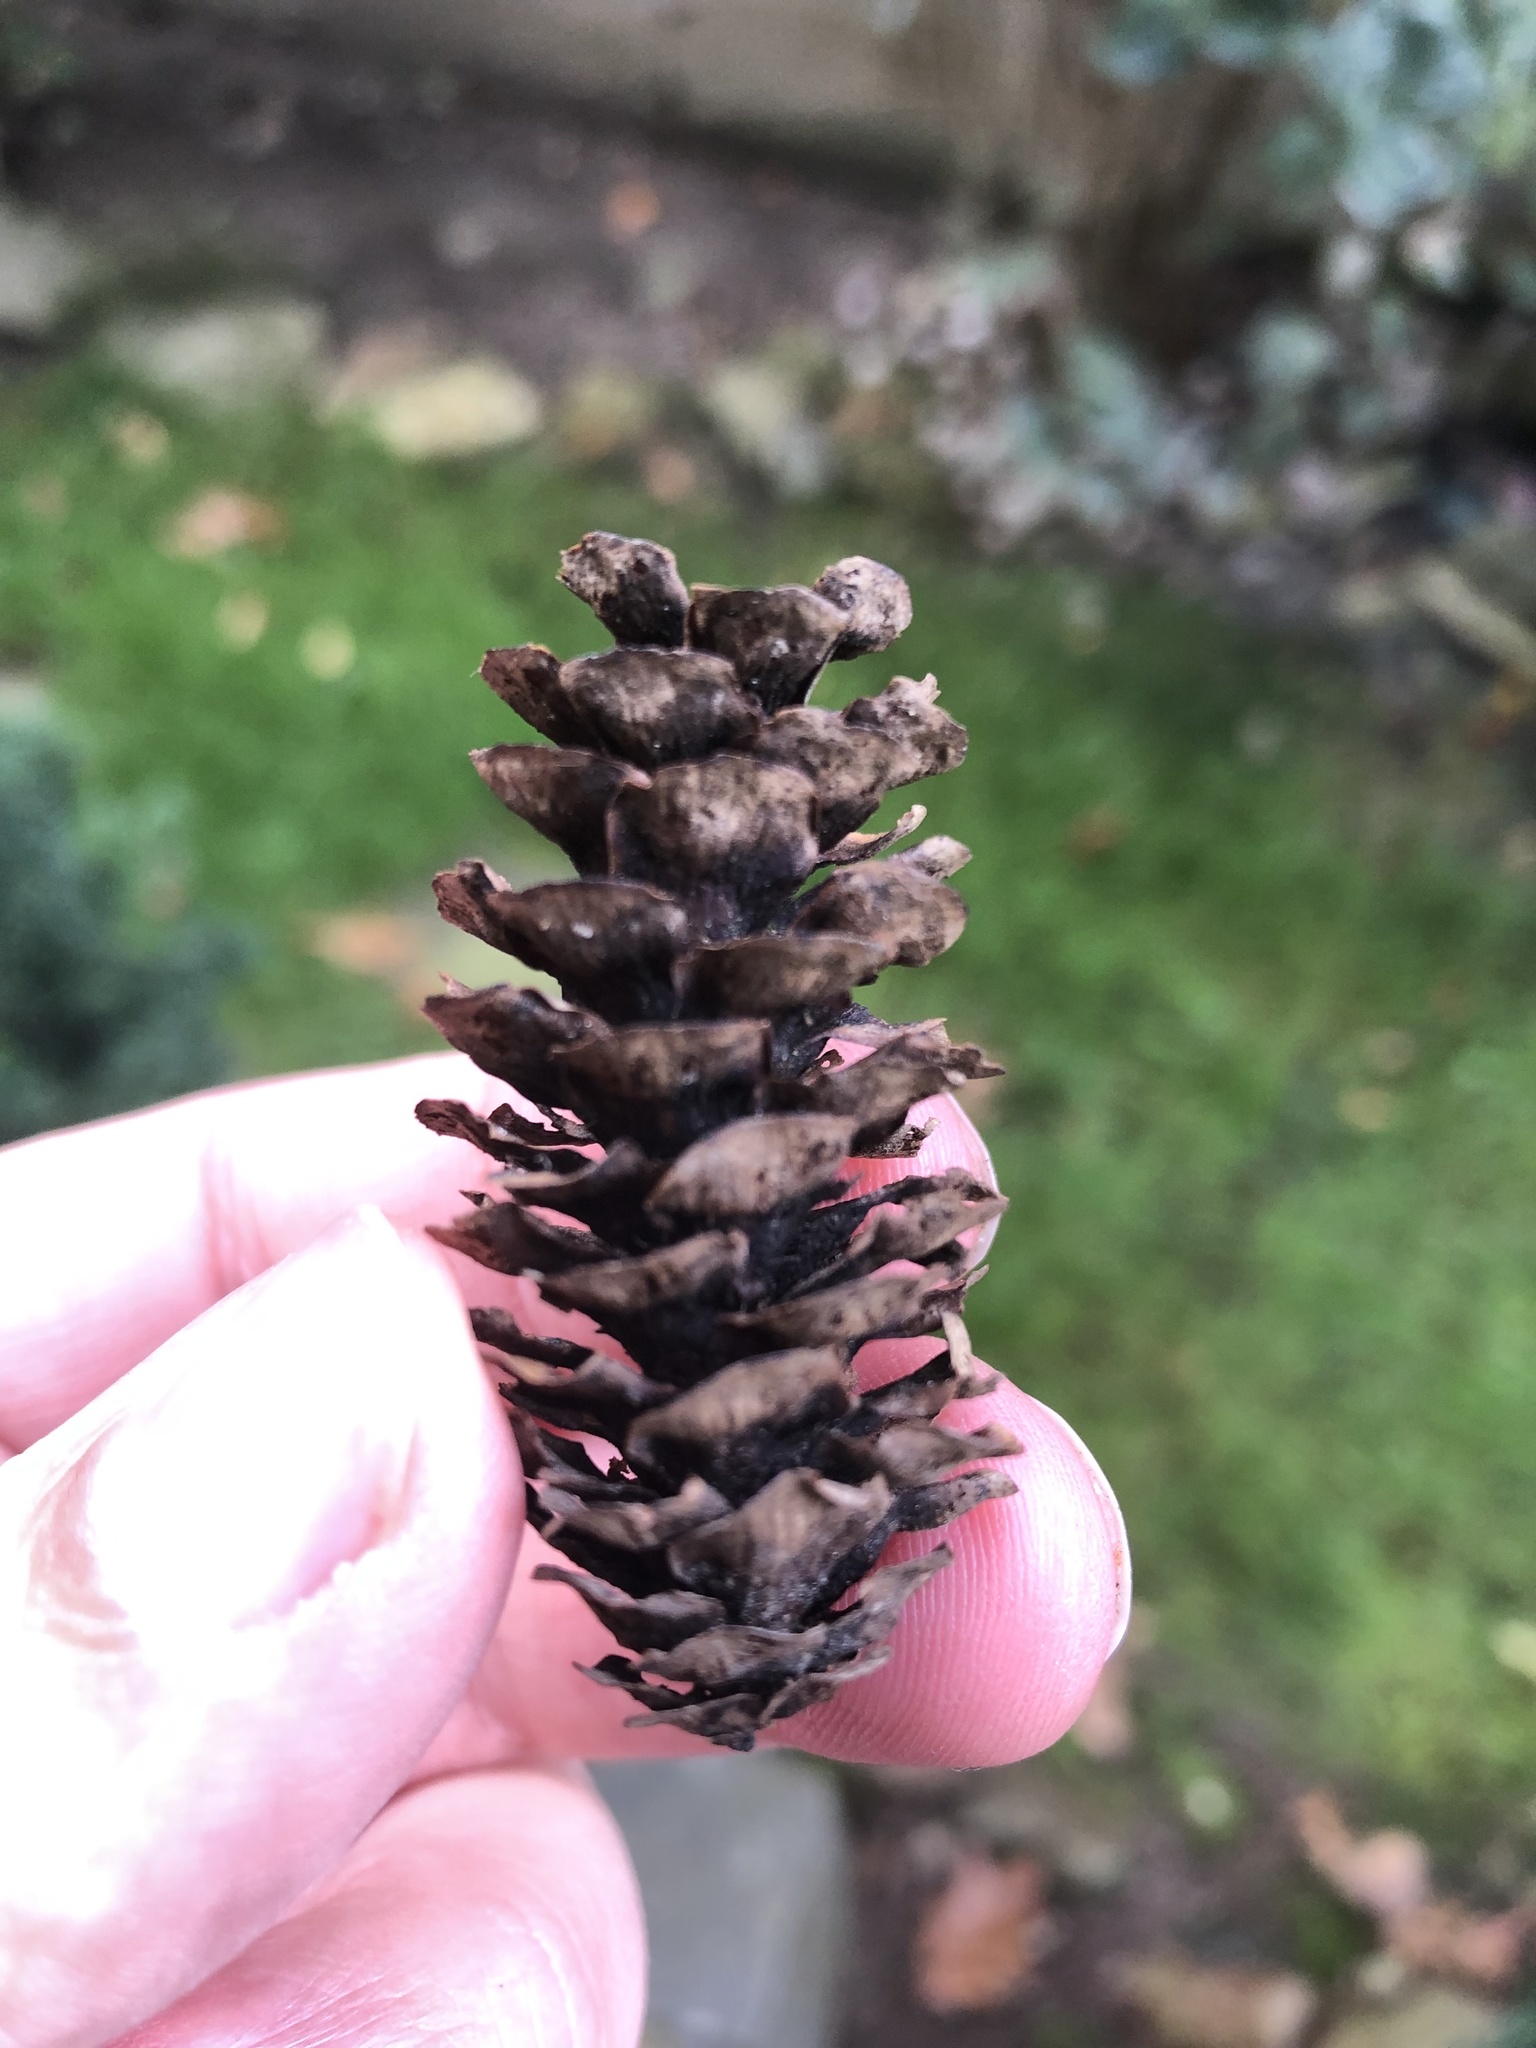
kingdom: Plantae
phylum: Tracheophyta
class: Pinopsida
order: Pinales
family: Pinaceae
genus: Picea
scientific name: Picea glauca
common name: White spruce
